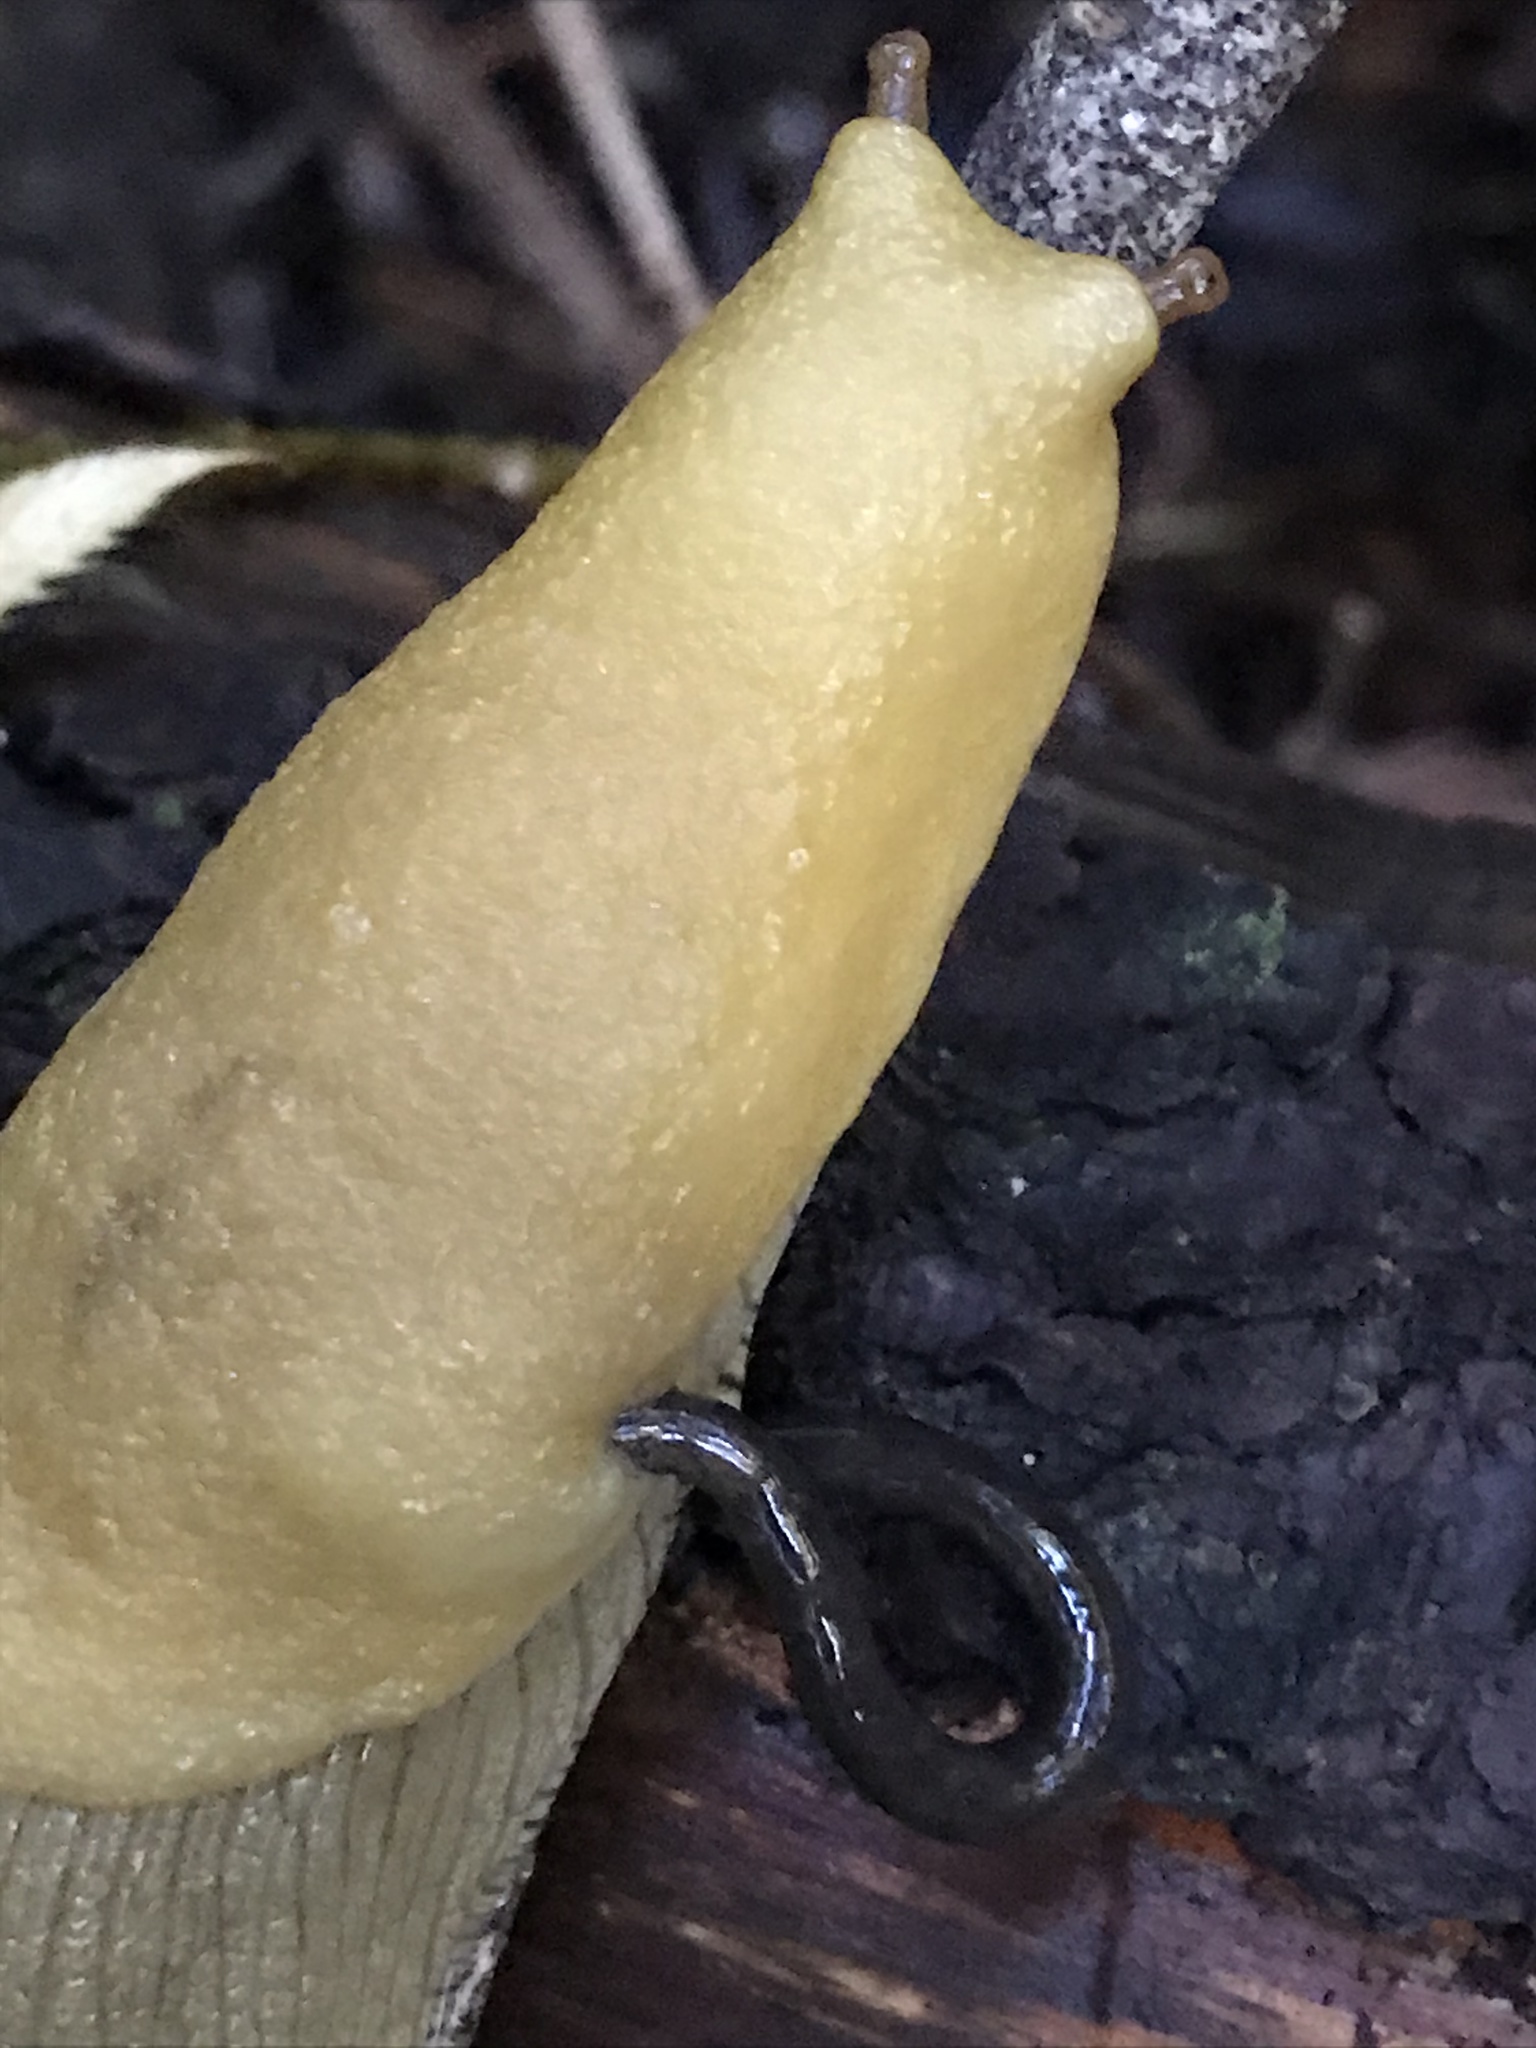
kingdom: Animalia
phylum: Mollusca
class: Gastropoda
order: Stylommatophora
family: Ariolimacidae
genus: Ariolimax
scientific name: Ariolimax buttoni
